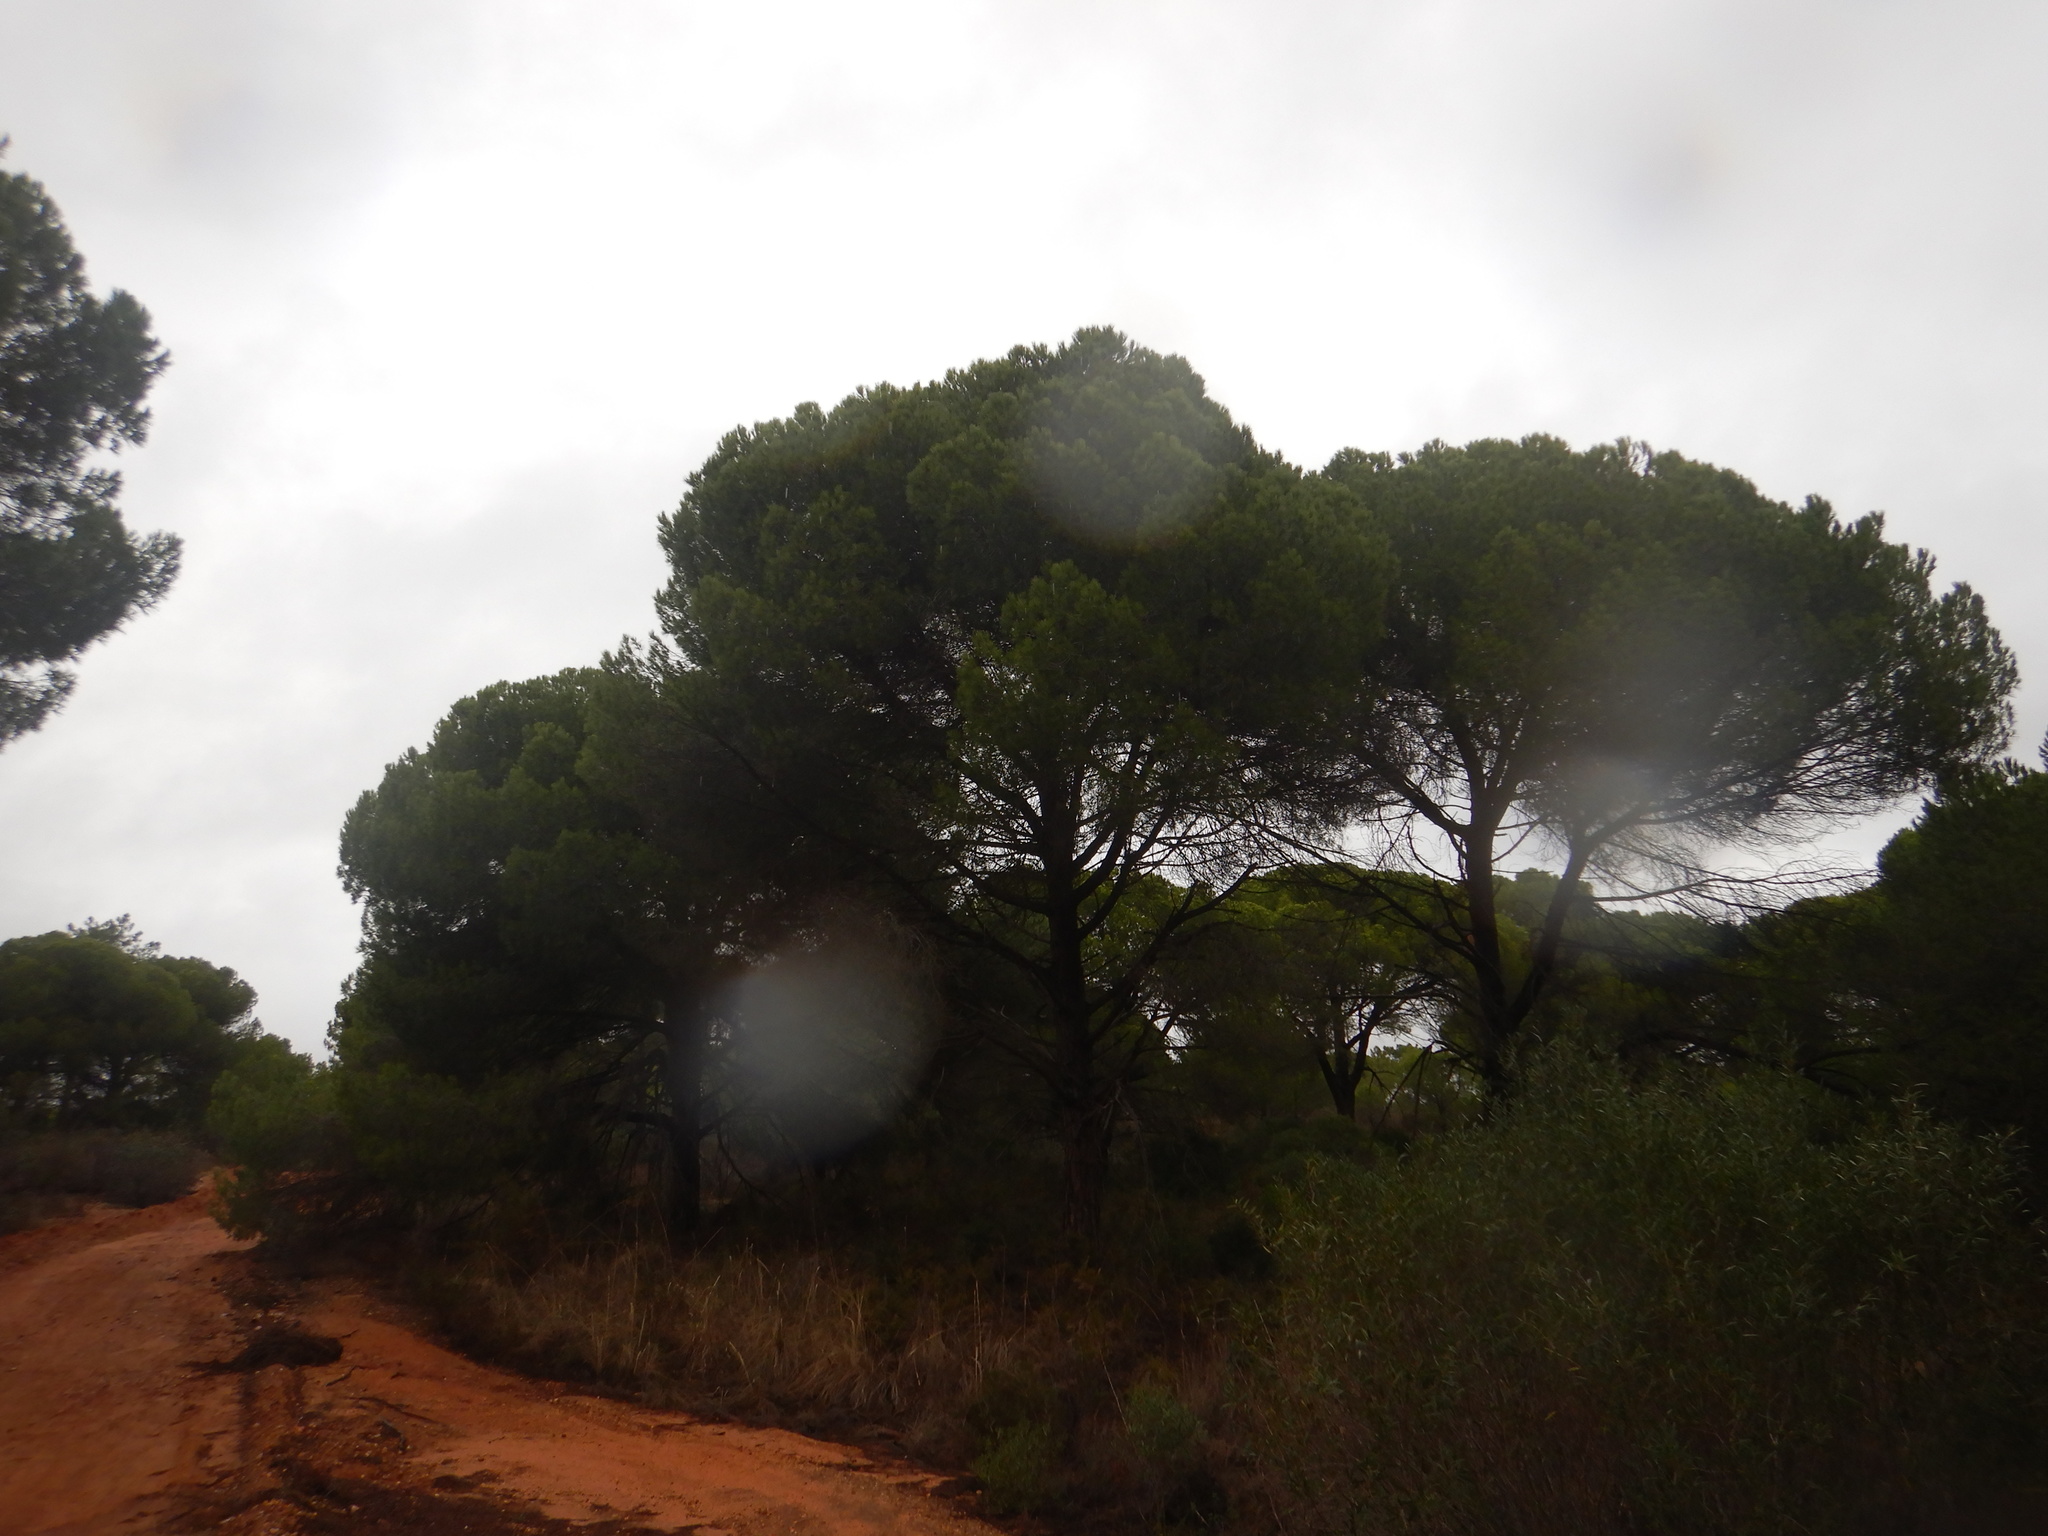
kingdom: Plantae
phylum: Tracheophyta
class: Pinopsida
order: Pinales
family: Pinaceae
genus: Pinus
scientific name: Pinus pinea
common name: Italian stone pine
